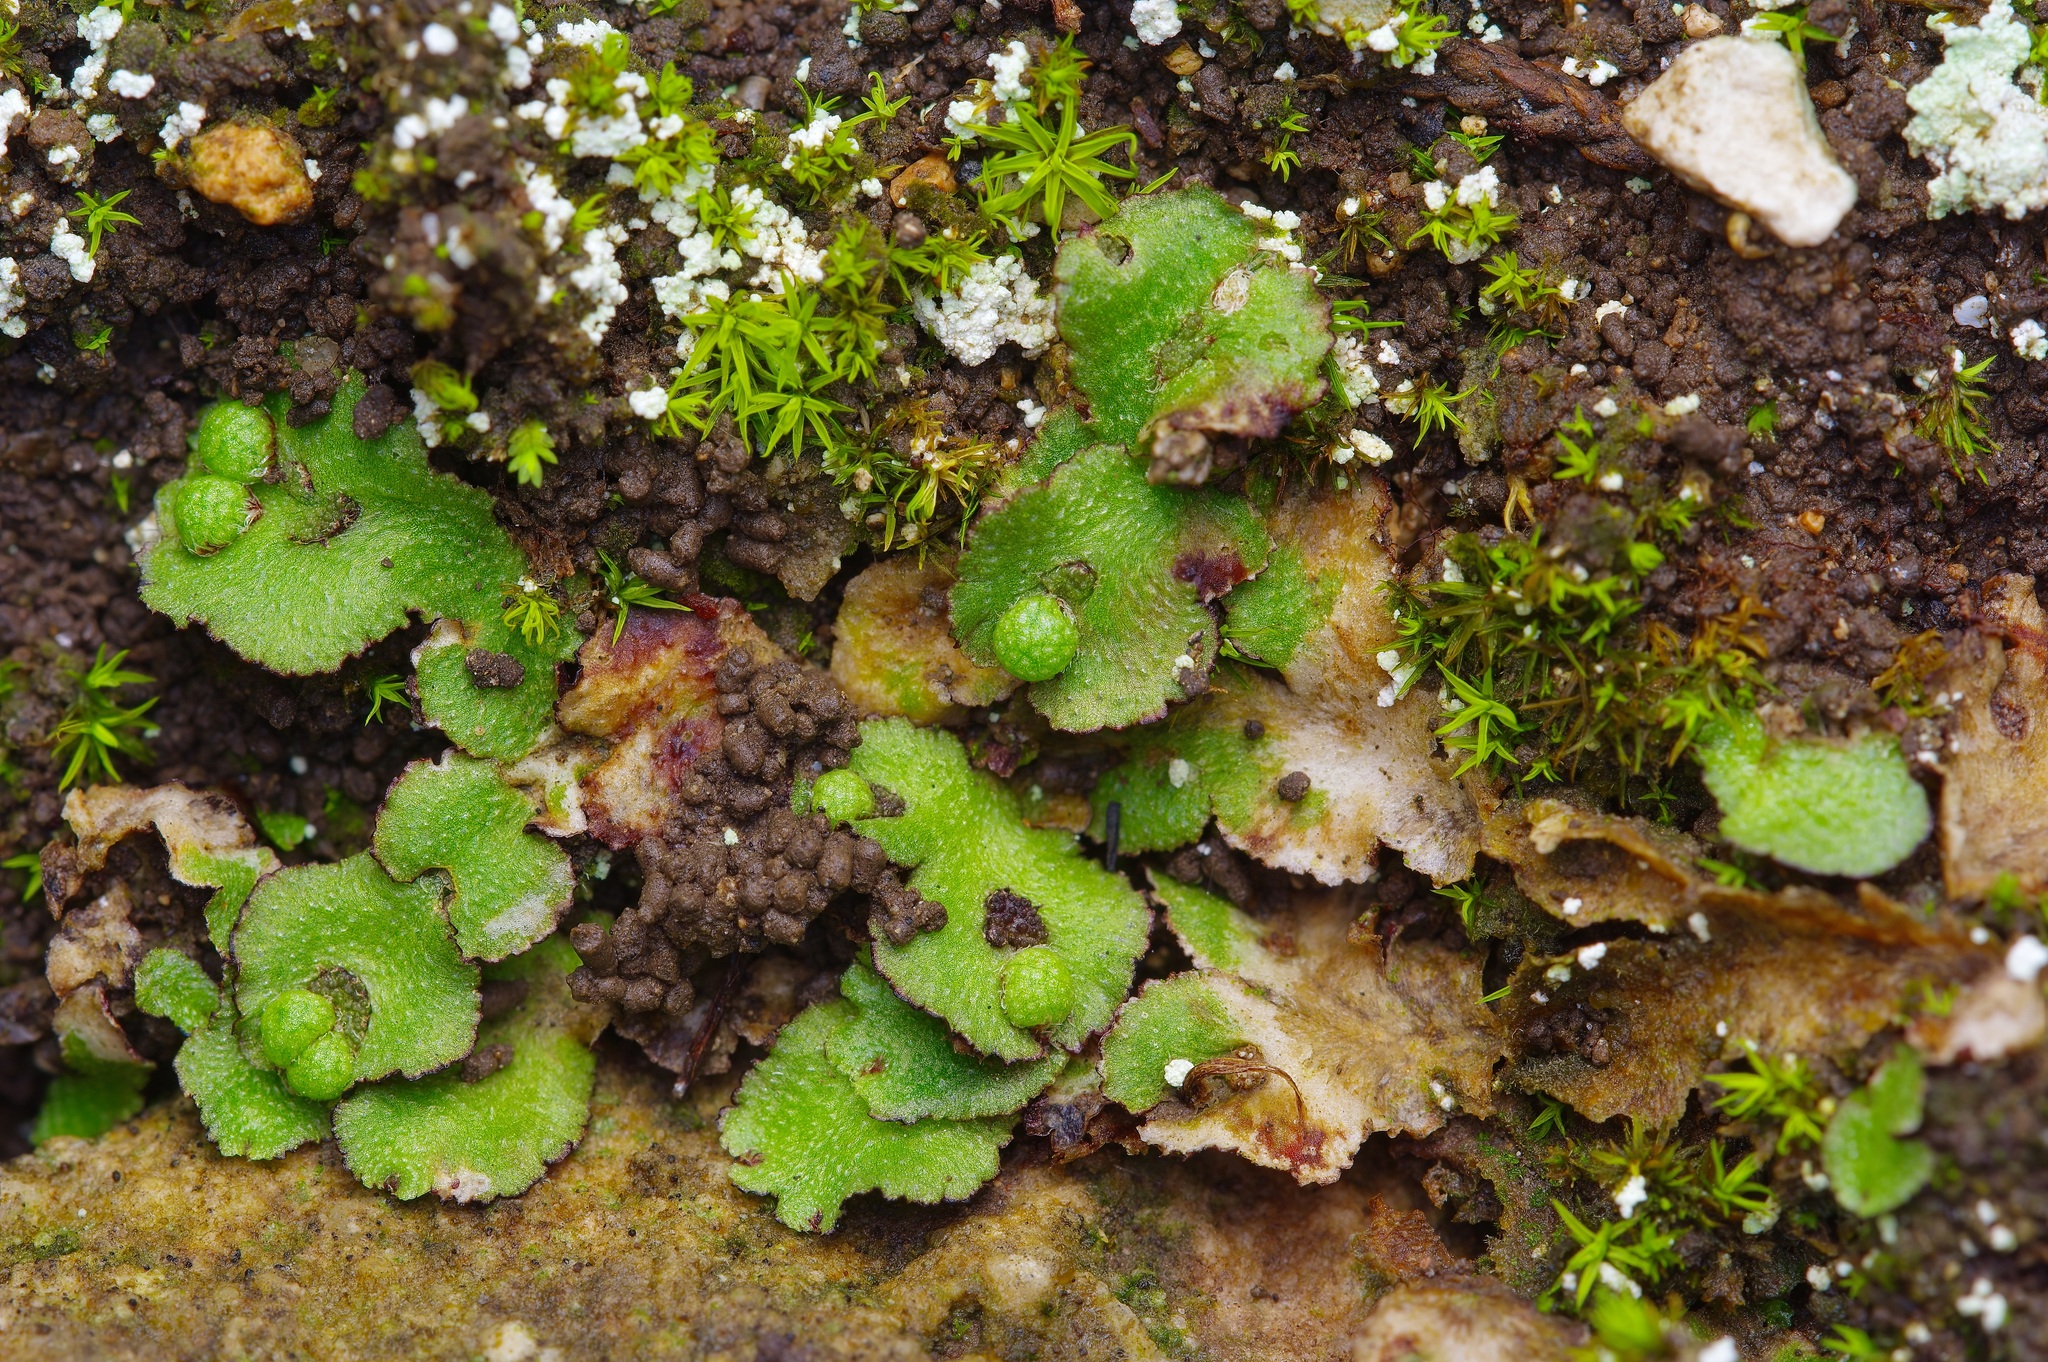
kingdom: Plantae
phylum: Marchantiophyta
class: Marchantiopsida
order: Marchantiales
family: Aytoniaceae
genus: Reboulia
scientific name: Reboulia hemisphaerica
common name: Purple-margined liverwort
